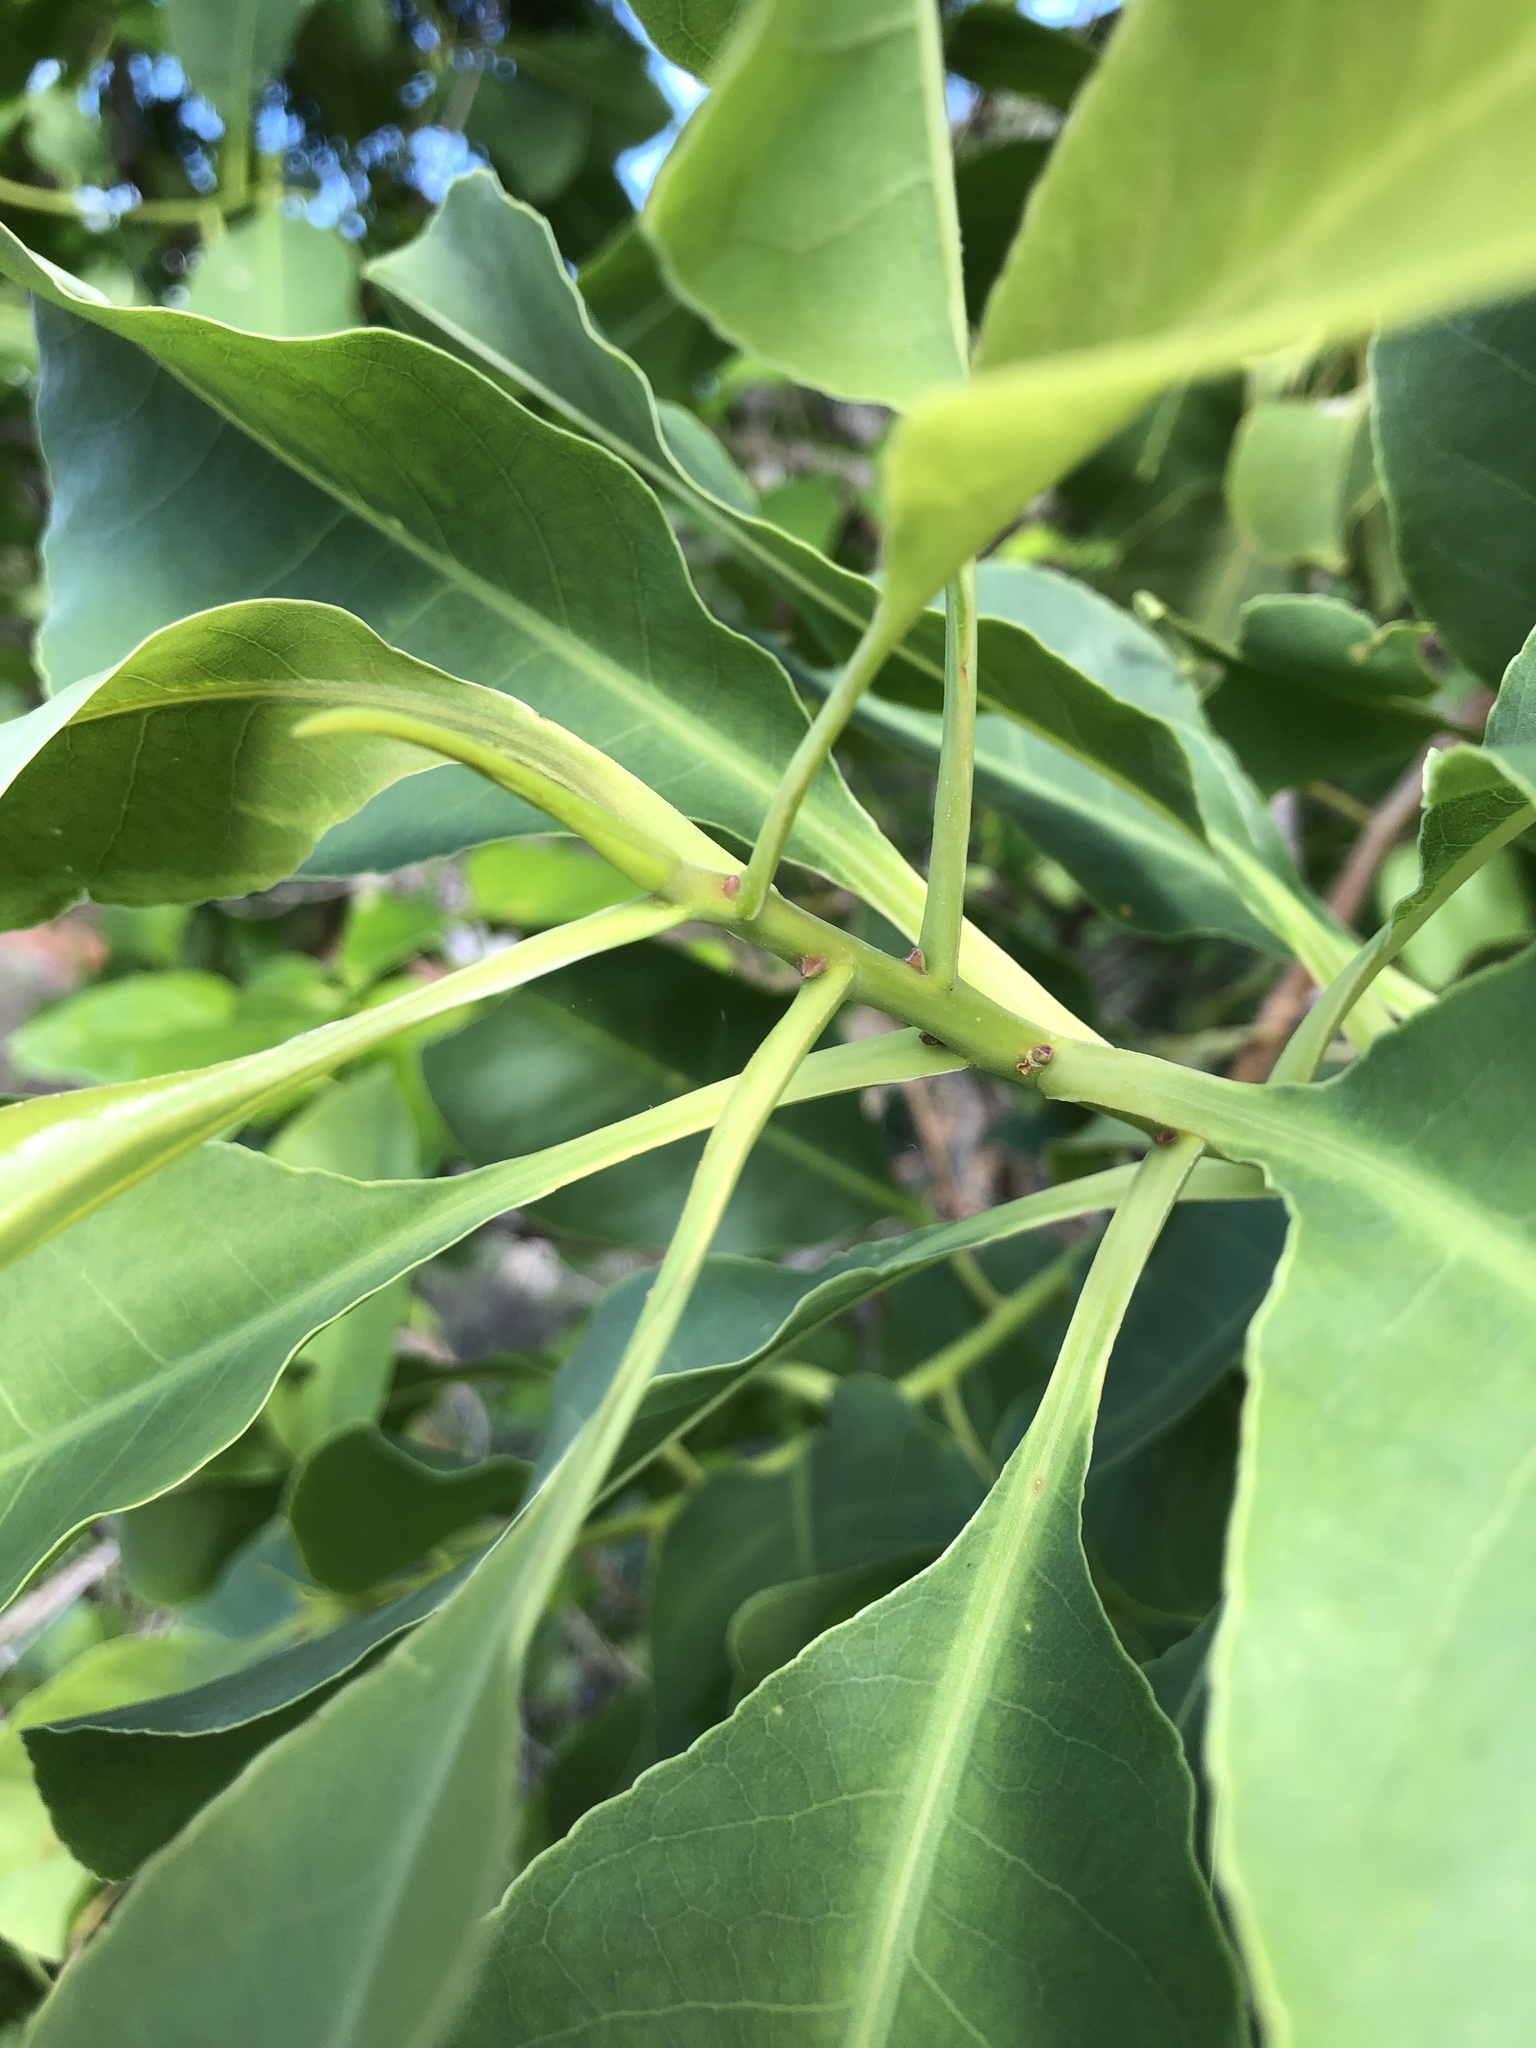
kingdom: Plantae
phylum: Tracheophyta
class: Magnoliopsida
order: Ericales
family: Lecythidaceae
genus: Planchonia
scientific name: Planchonia careya
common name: Cockatoo-apple
